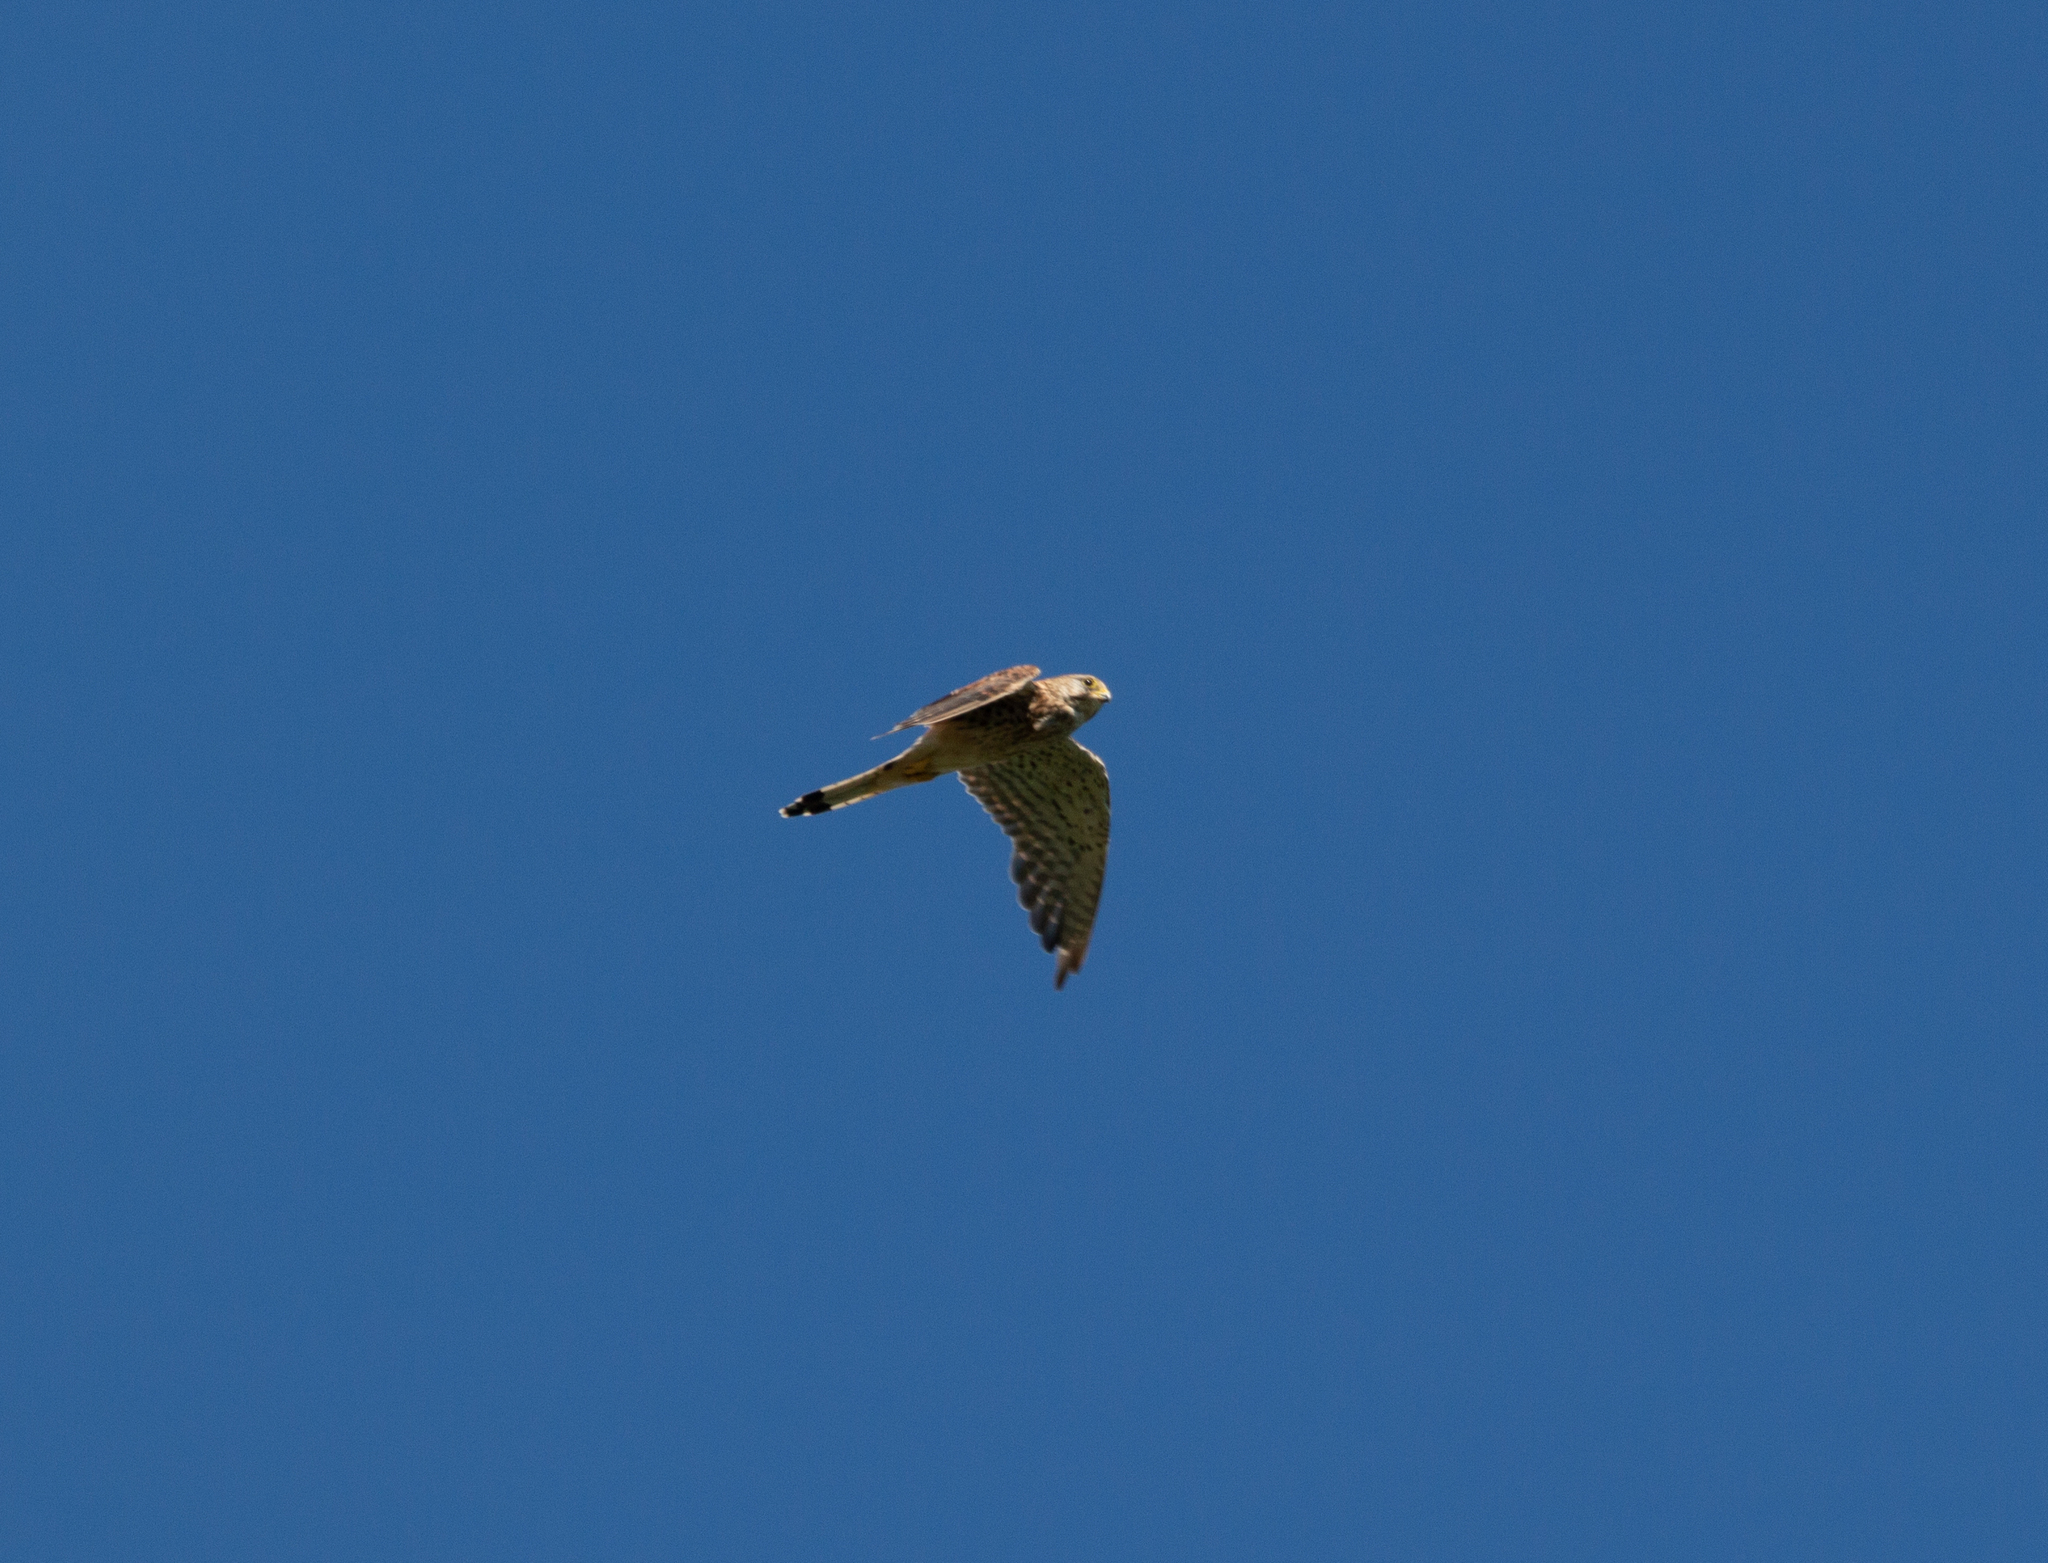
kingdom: Animalia
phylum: Chordata
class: Aves
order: Falconiformes
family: Falconidae
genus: Falco
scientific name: Falco tinnunculus
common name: Common kestrel
